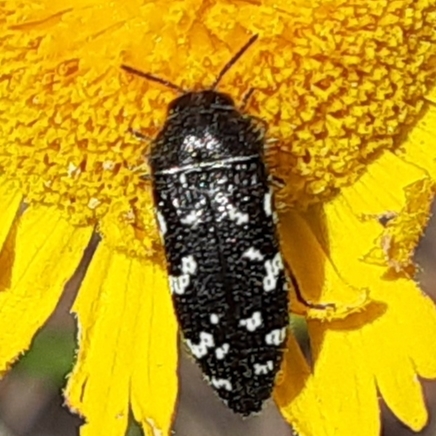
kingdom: Animalia
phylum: Arthropoda
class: Insecta
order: Coleoptera
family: Buprestidae
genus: Acmaeodera
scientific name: Acmaeodera ornata
